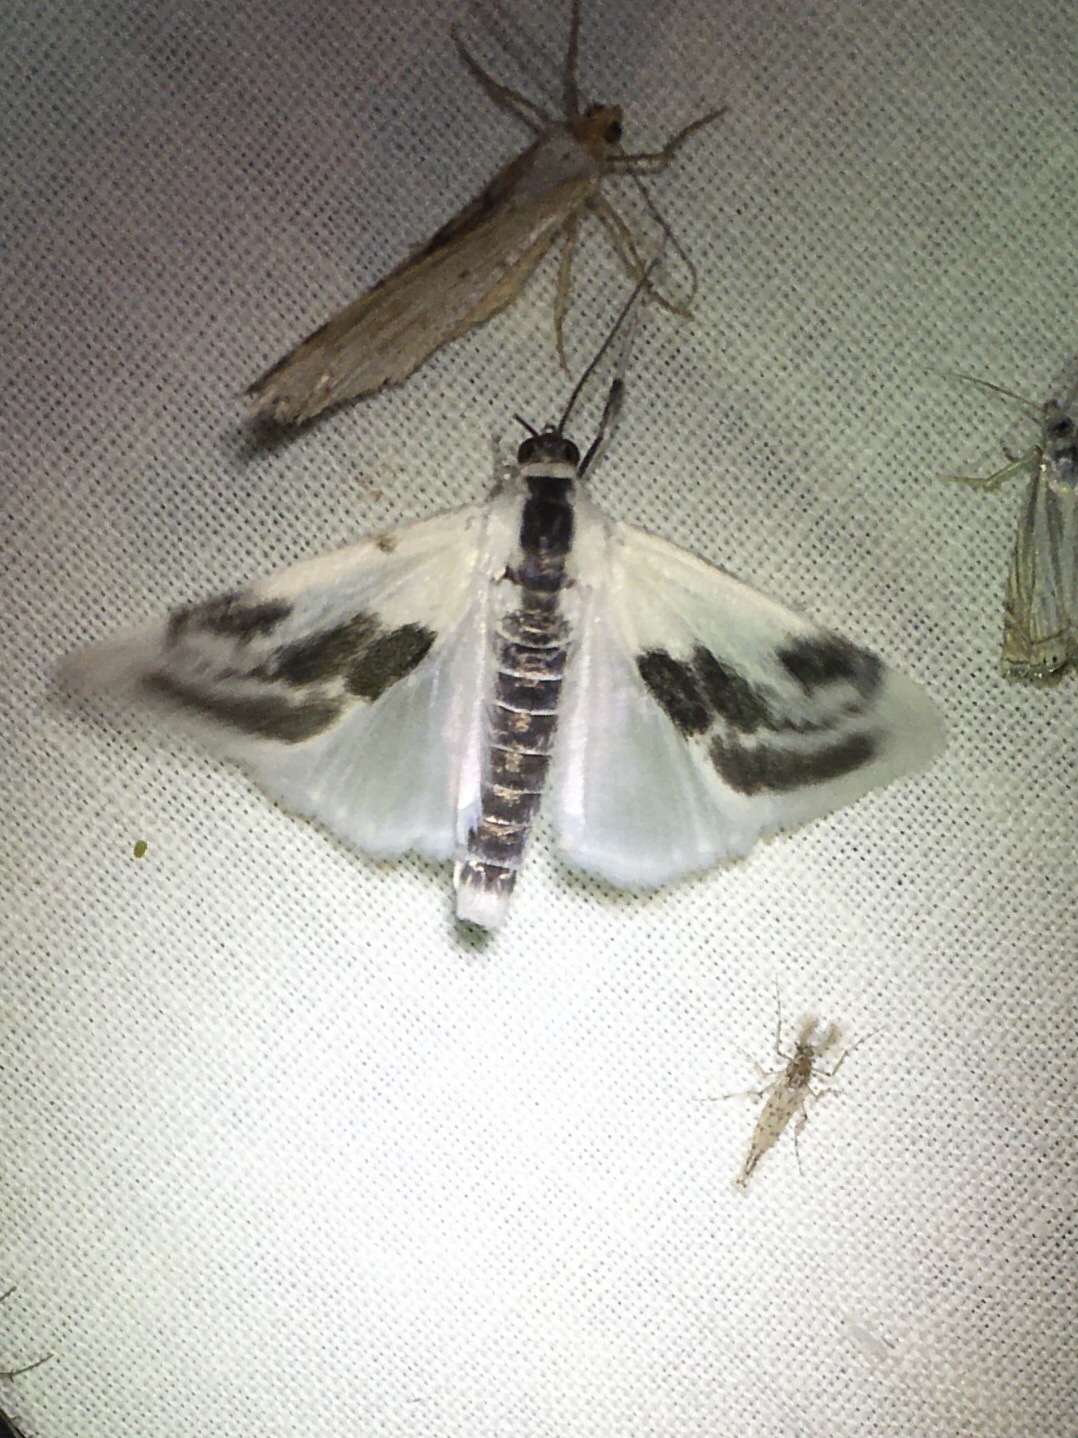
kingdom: Animalia
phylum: Arthropoda
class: Insecta
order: Lepidoptera
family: Crambidae
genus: Cliniodes
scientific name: Cliniodes
